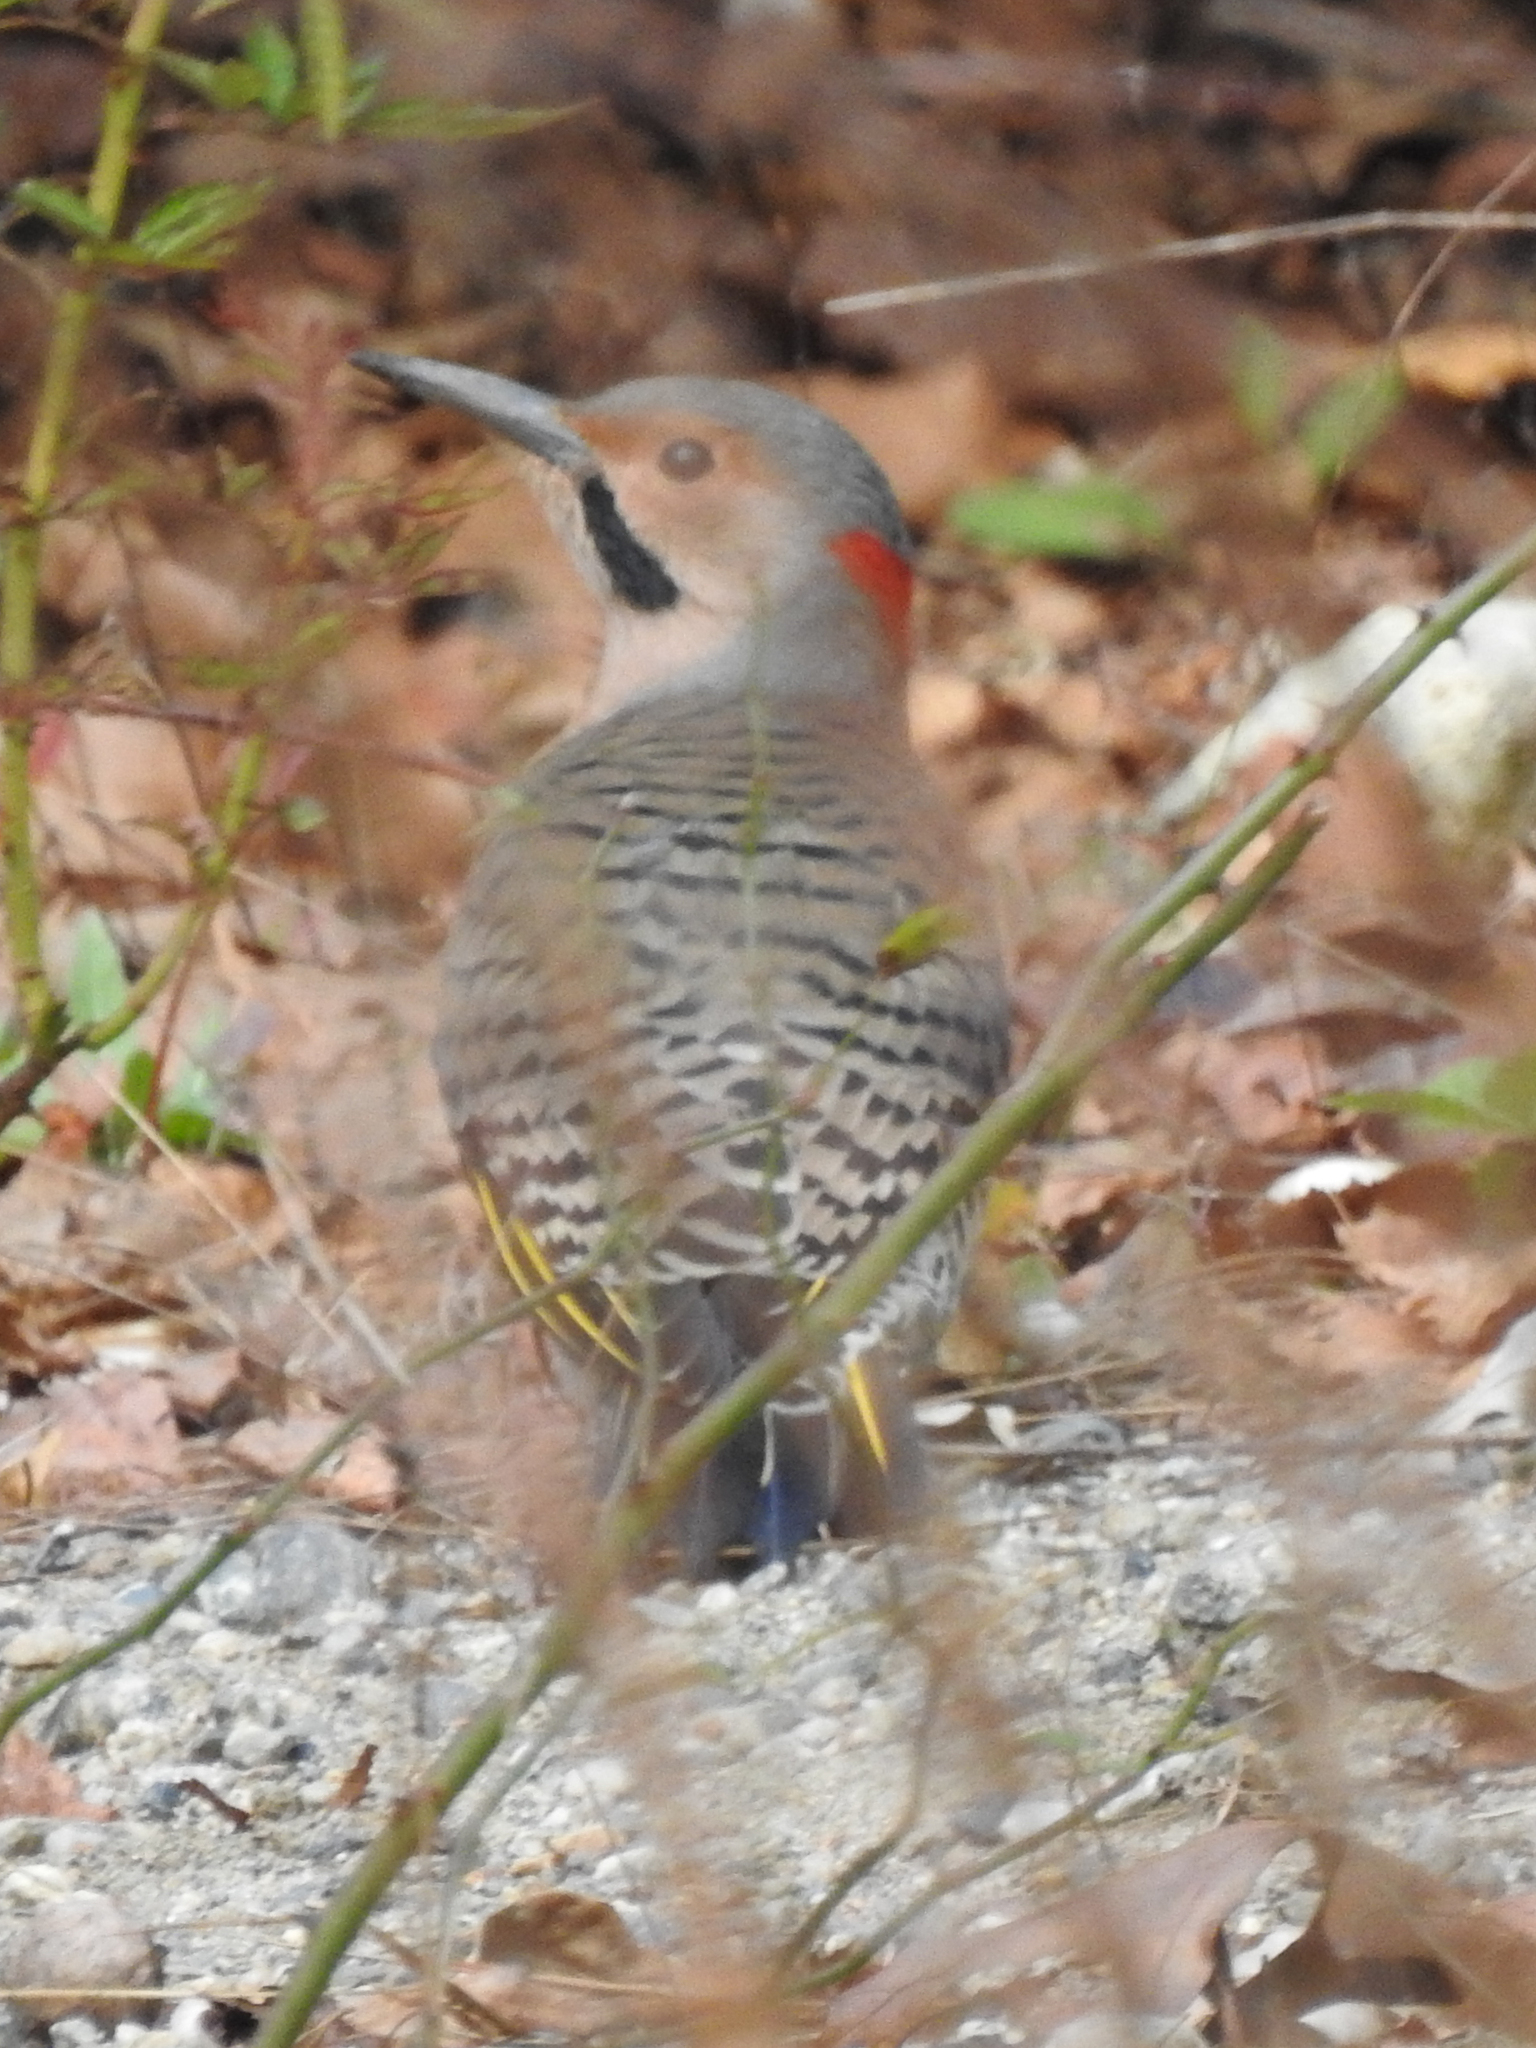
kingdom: Animalia
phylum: Chordata
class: Aves
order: Piciformes
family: Picidae
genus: Colaptes
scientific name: Colaptes auratus
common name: Northern flicker
